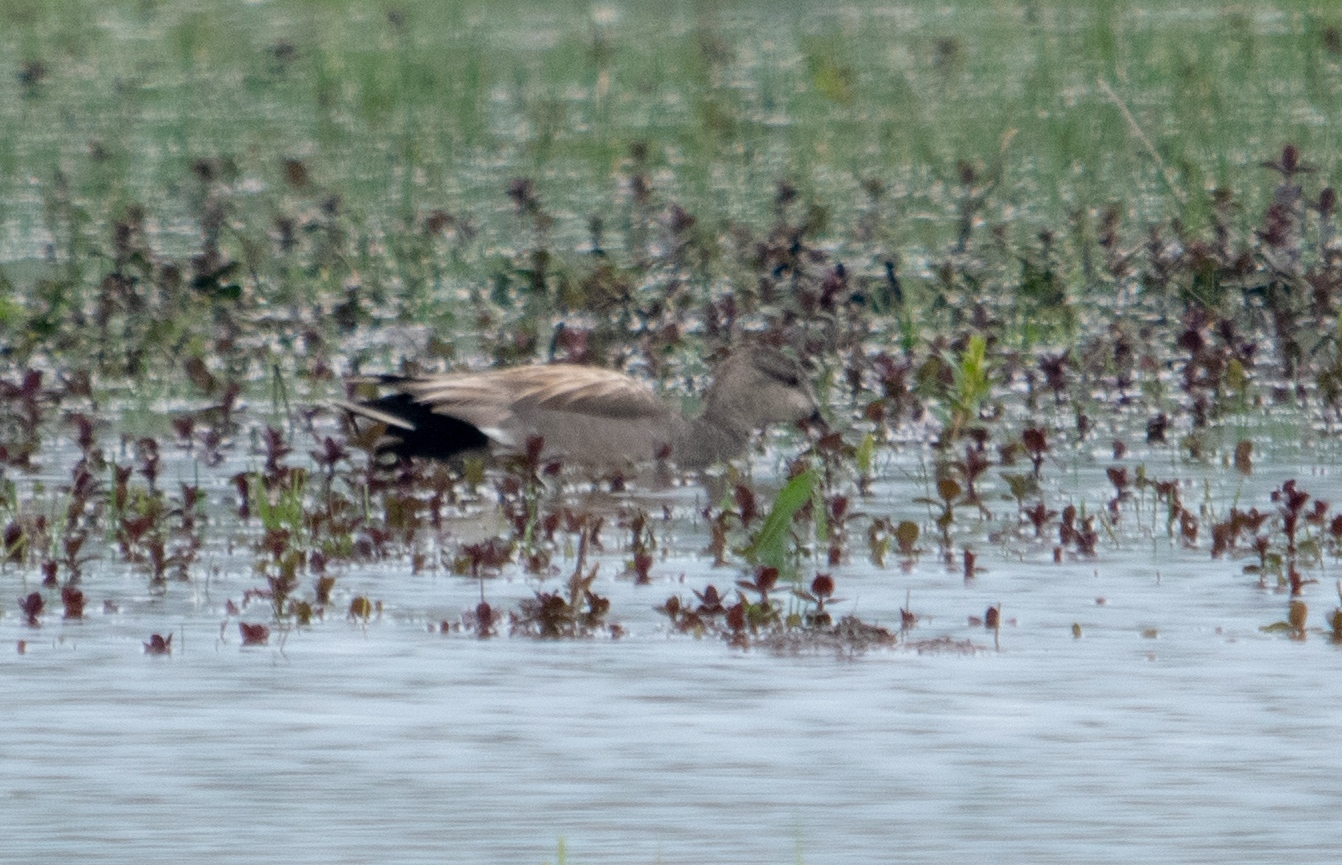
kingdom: Animalia
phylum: Chordata
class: Aves
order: Anseriformes
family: Anatidae
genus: Mareca
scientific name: Mareca strepera
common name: Gadwall
